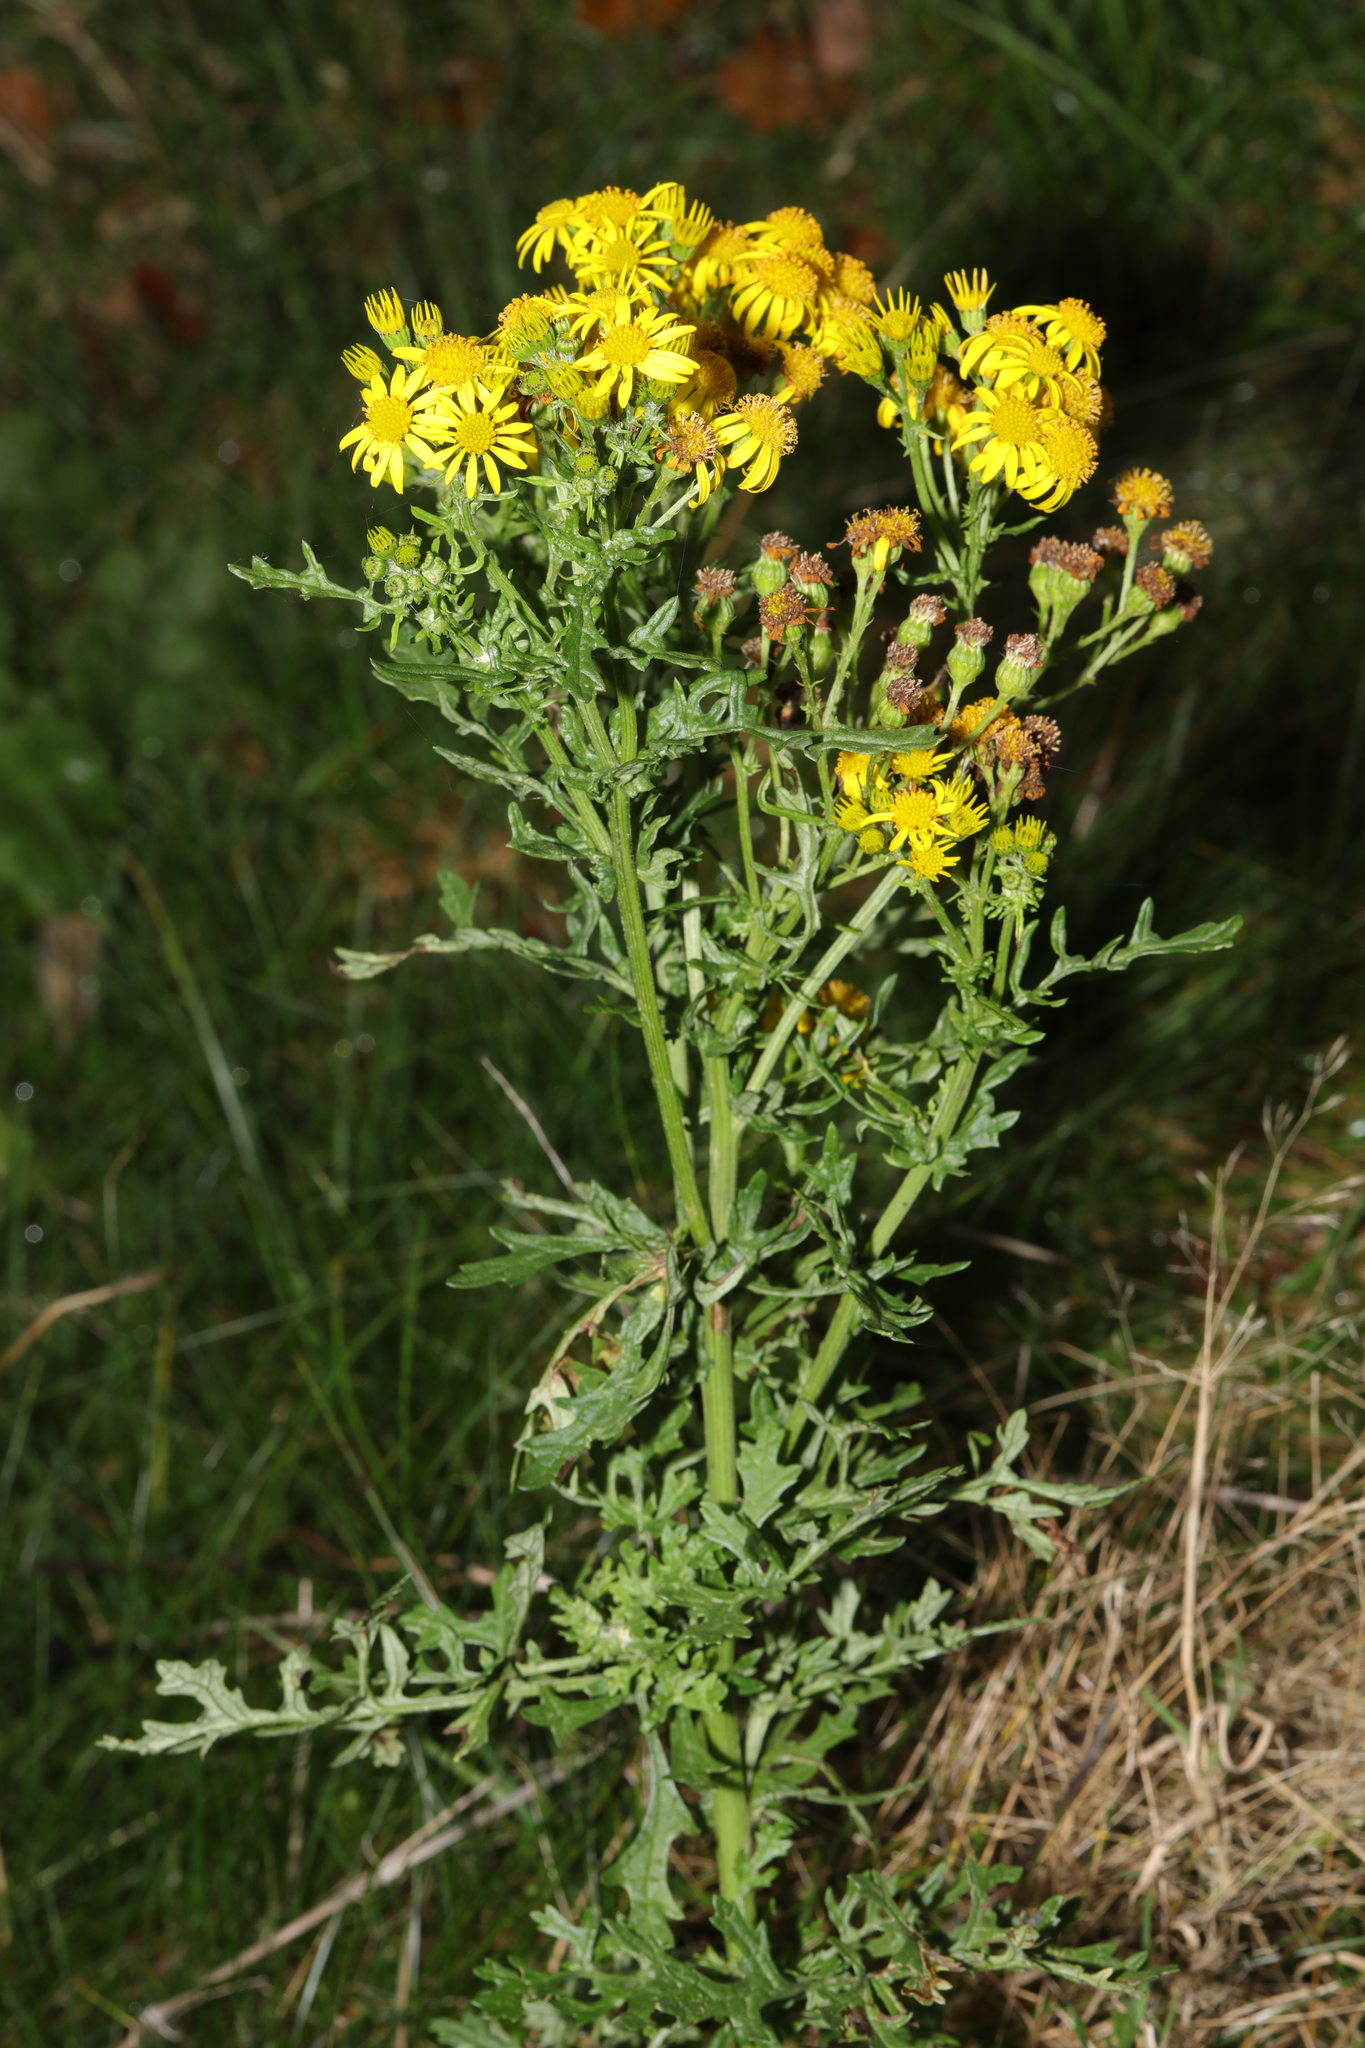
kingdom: Plantae
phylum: Tracheophyta
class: Magnoliopsida
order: Asterales
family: Asteraceae
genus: Jacobaea
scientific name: Jacobaea vulgaris
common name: Stinking willie
